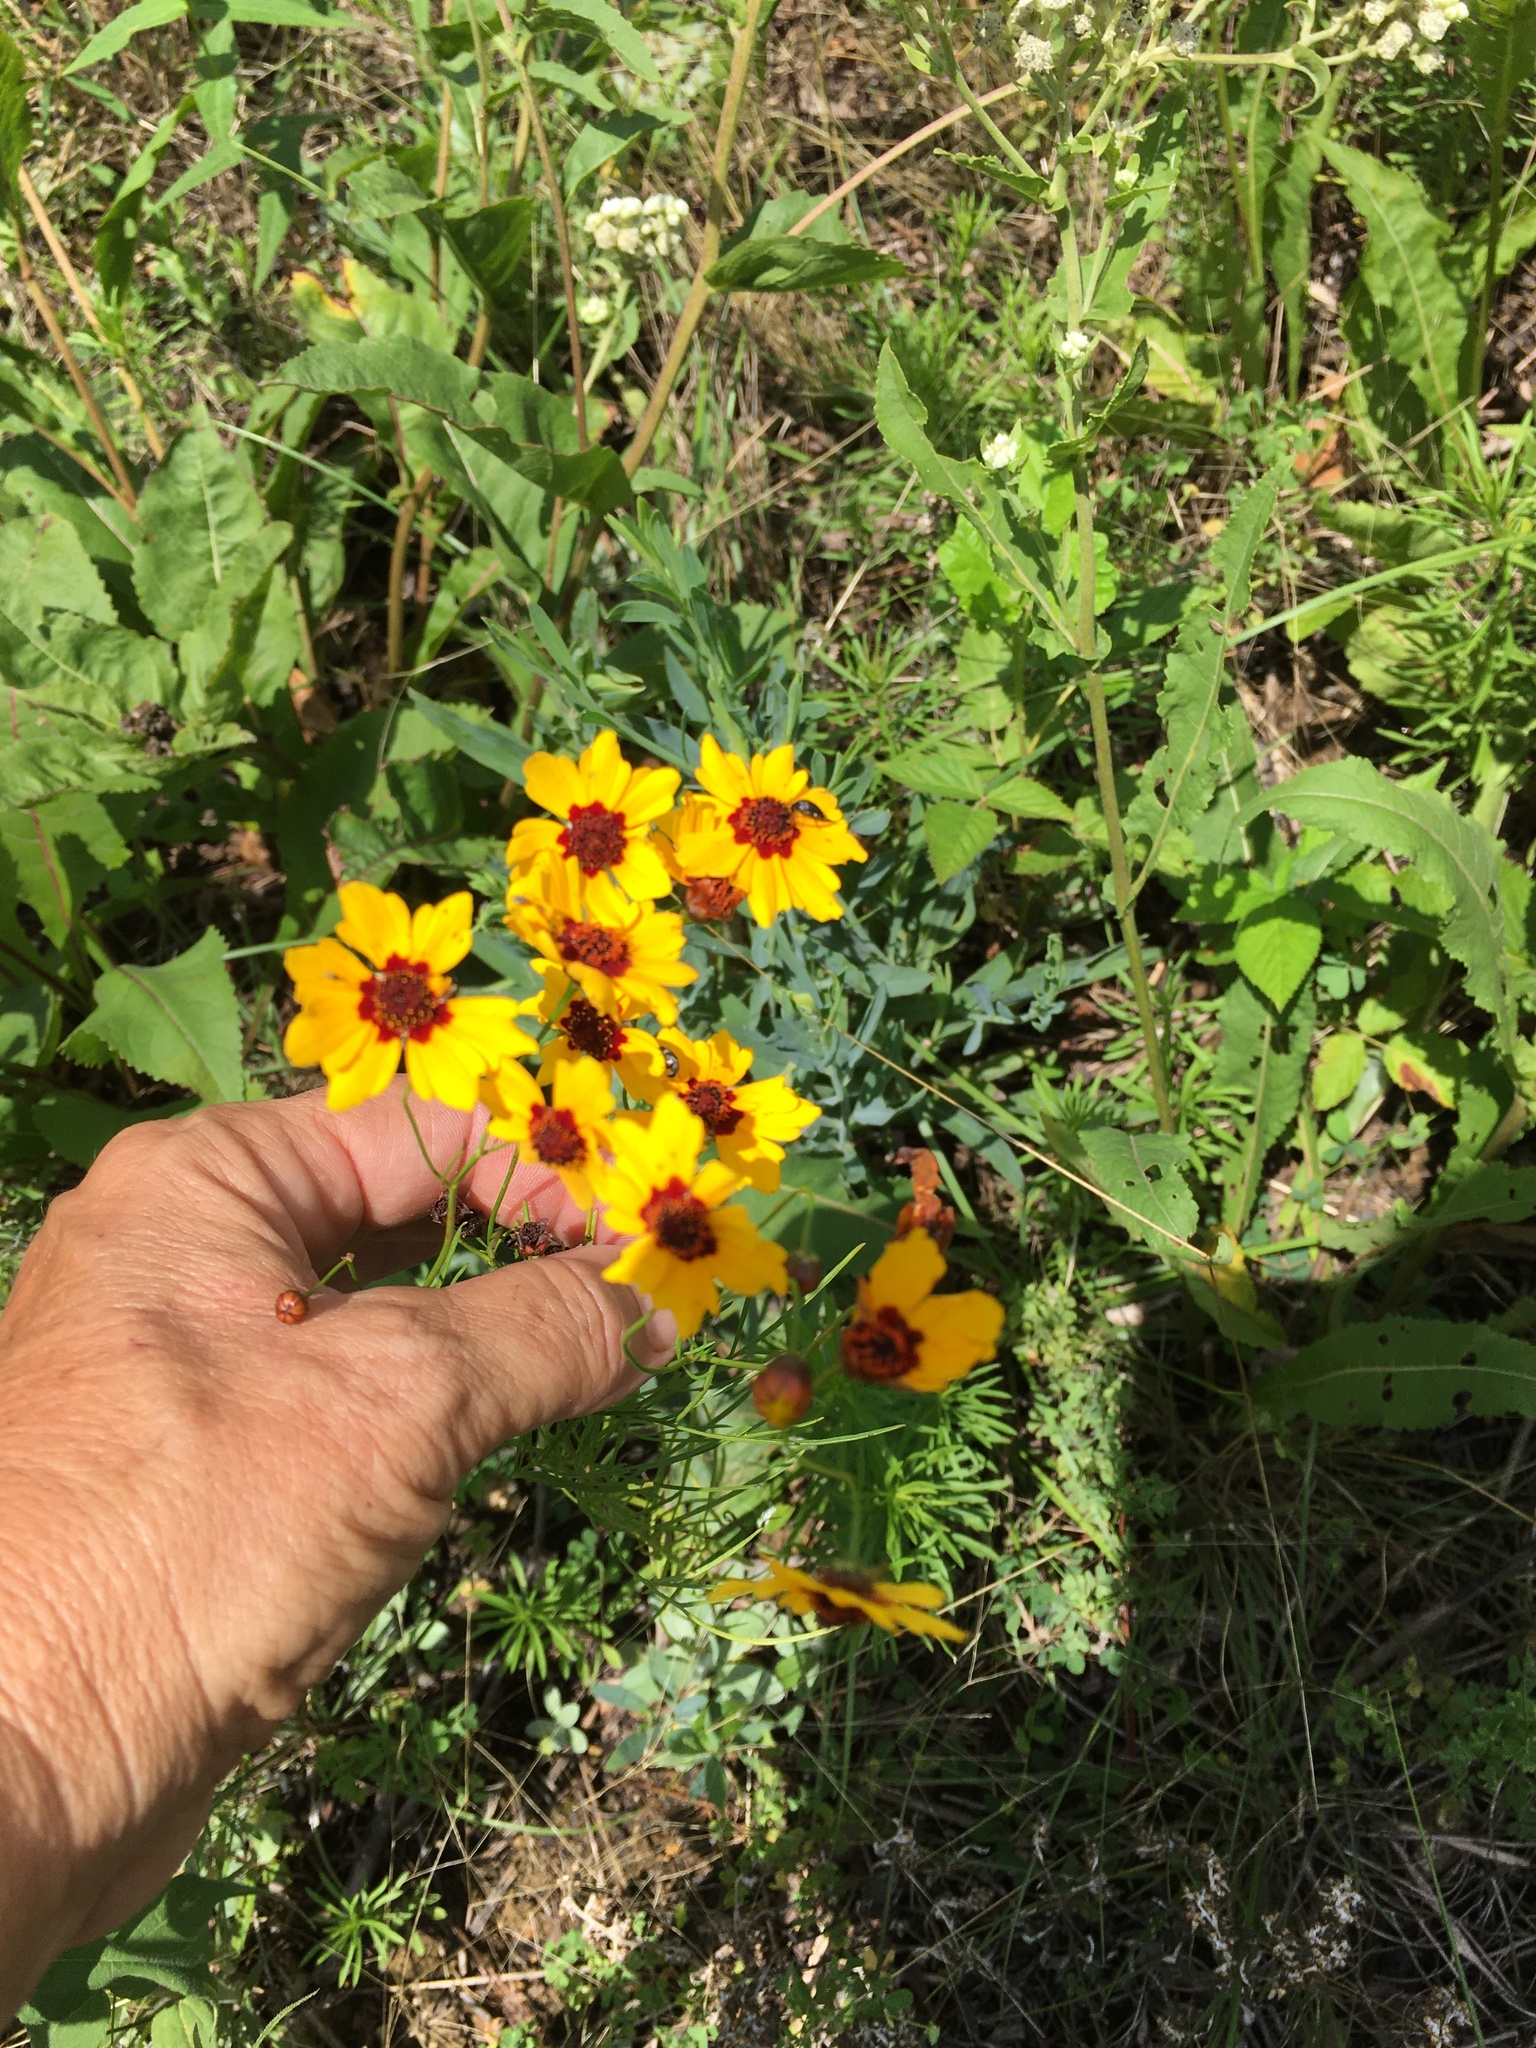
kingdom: Plantae
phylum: Tracheophyta
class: Magnoliopsida
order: Asterales
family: Asteraceae
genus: Coreopsis
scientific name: Coreopsis tinctoria
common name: Garden tickseed
